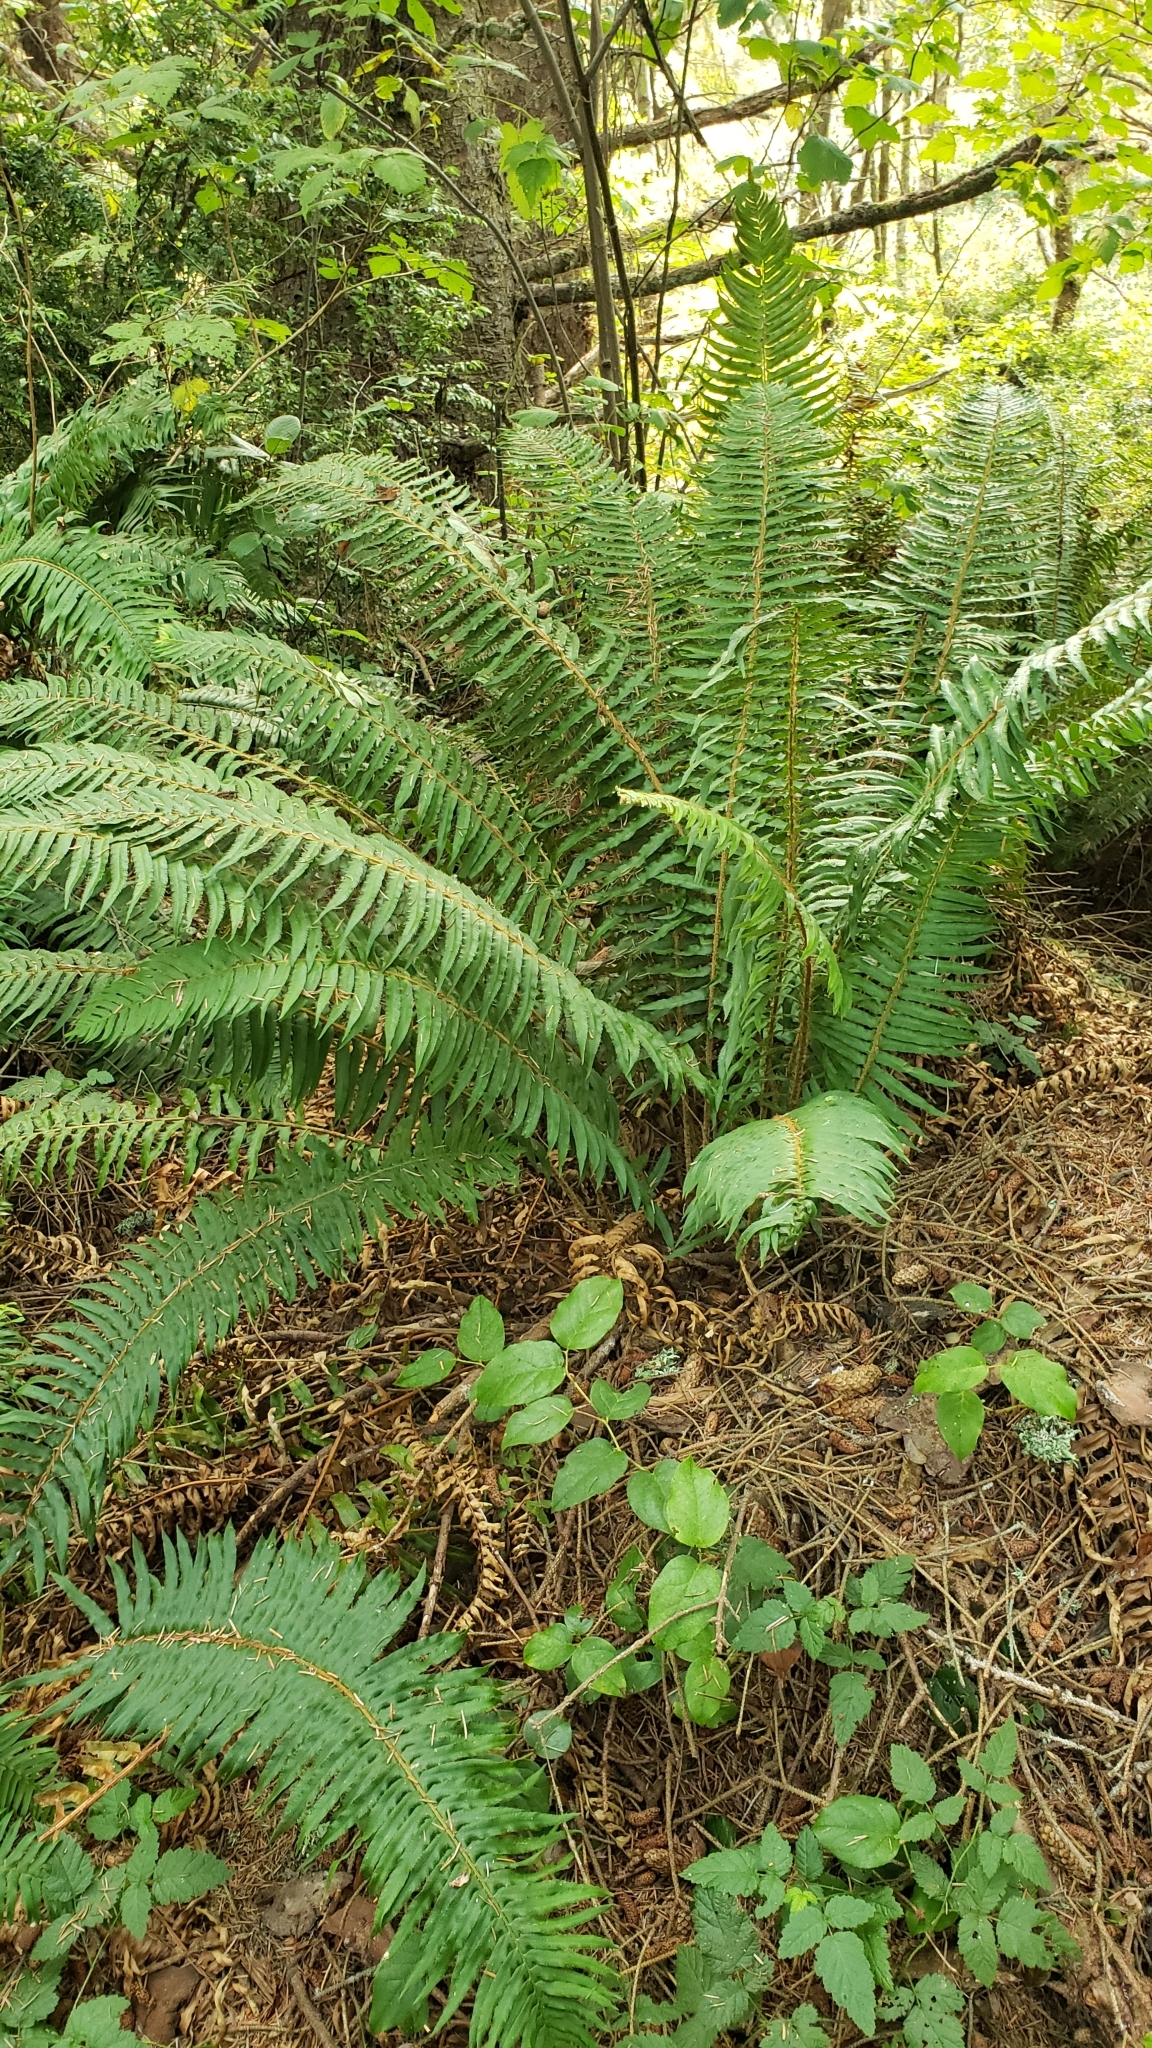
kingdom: Plantae
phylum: Tracheophyta
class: Polypodiopsida
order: Polypodiales
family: Dryopteridaceae
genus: Polystichum
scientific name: Polystichum munitum
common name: Western sword-fern
